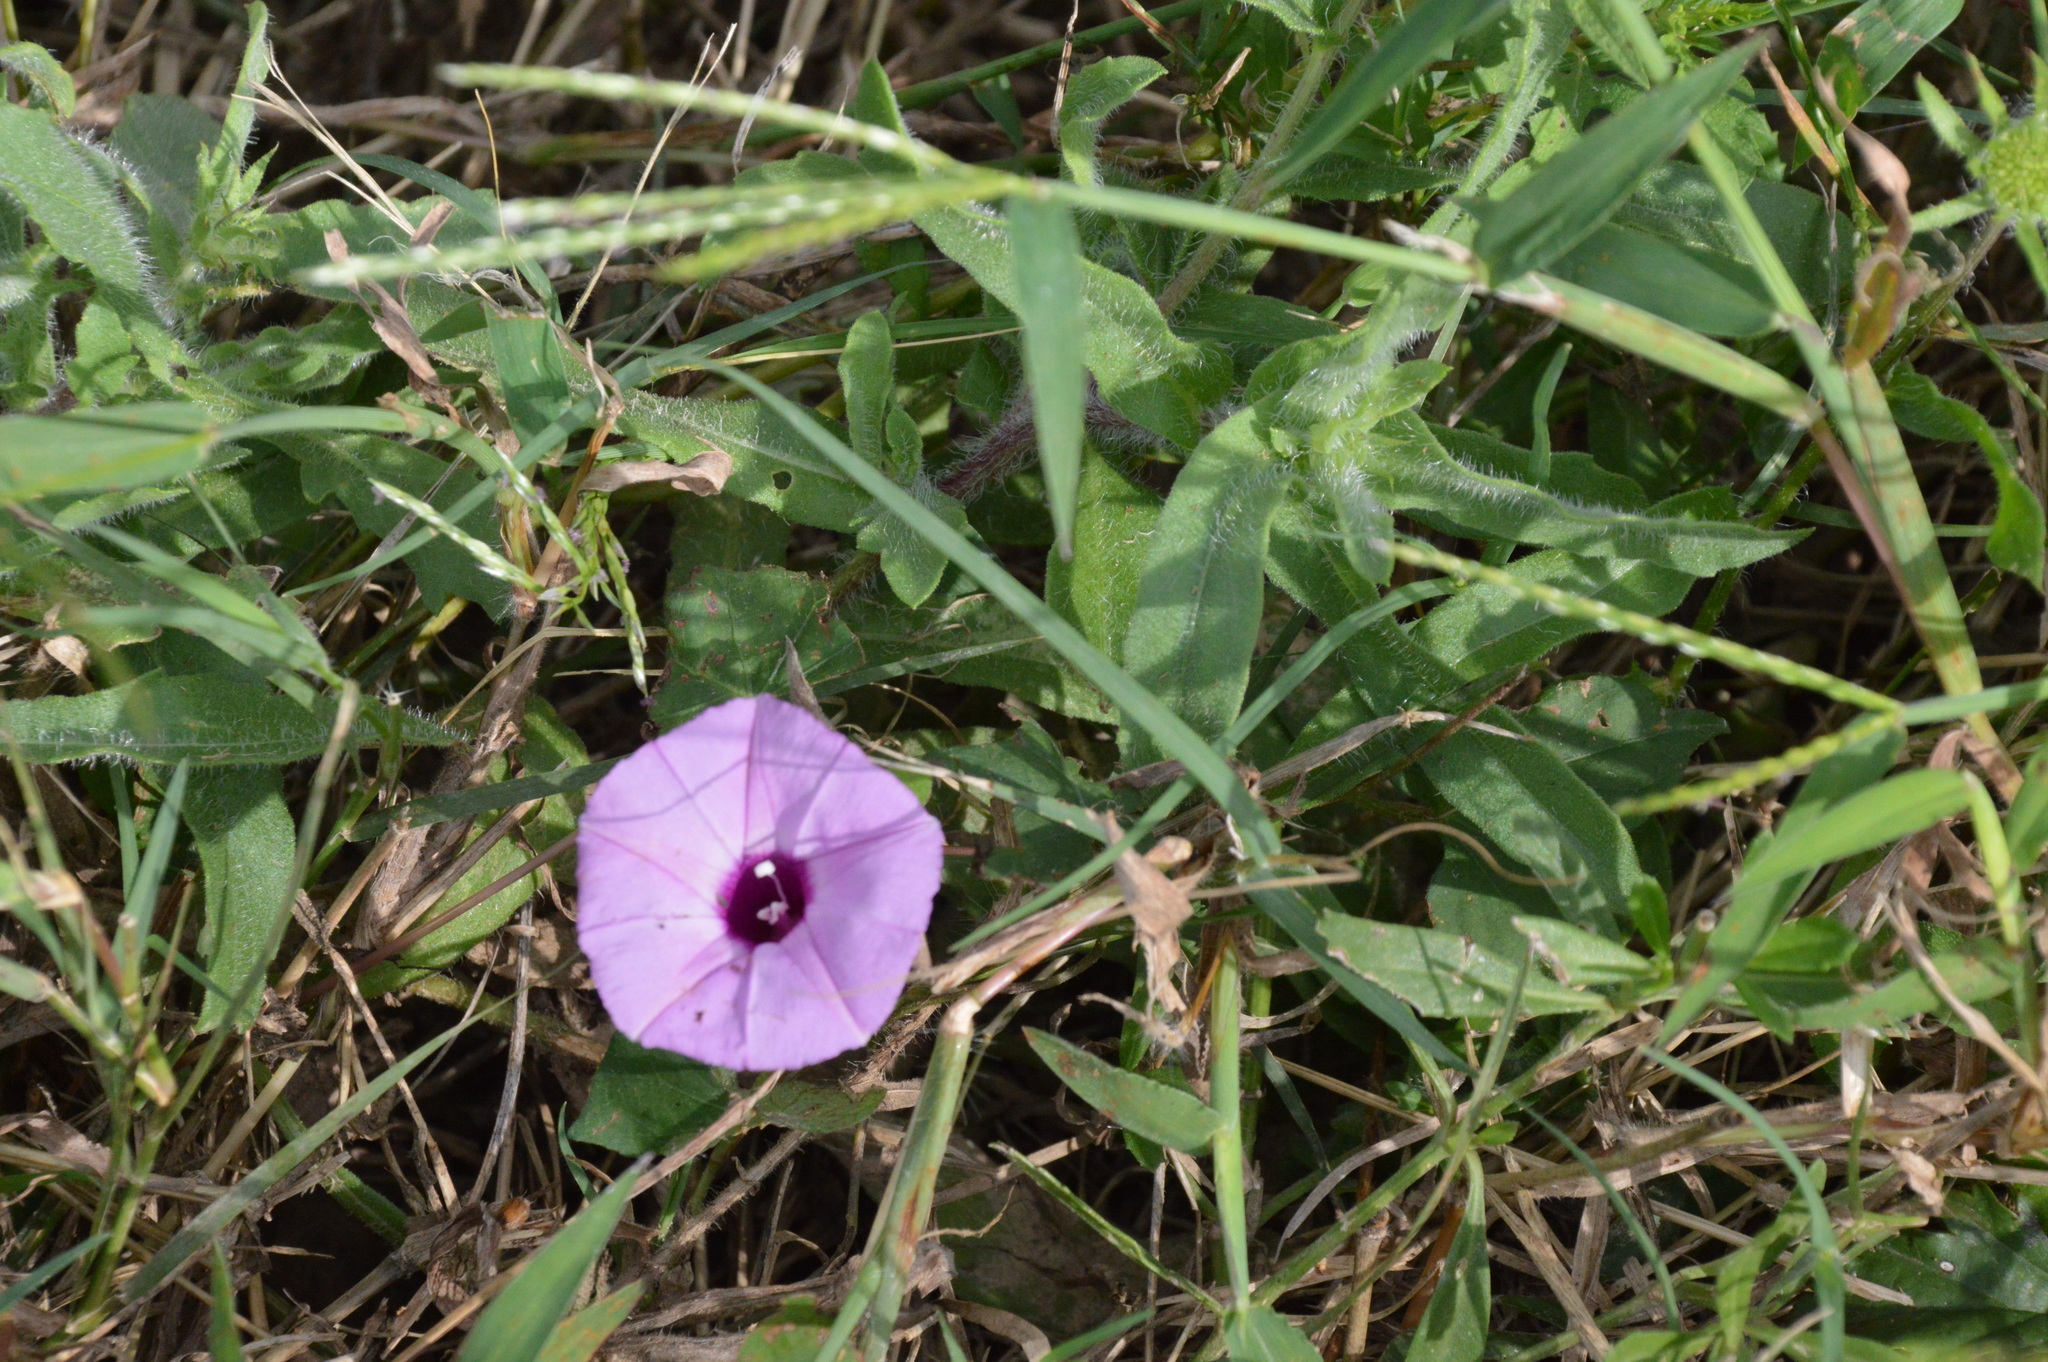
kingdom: Plantae
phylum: Tracheophyta
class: Magnoliopsida
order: Solanales
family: Convolvulaceae
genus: Ipomoea
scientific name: Ipomoea cordatotriloba
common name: Cotton morning glory
